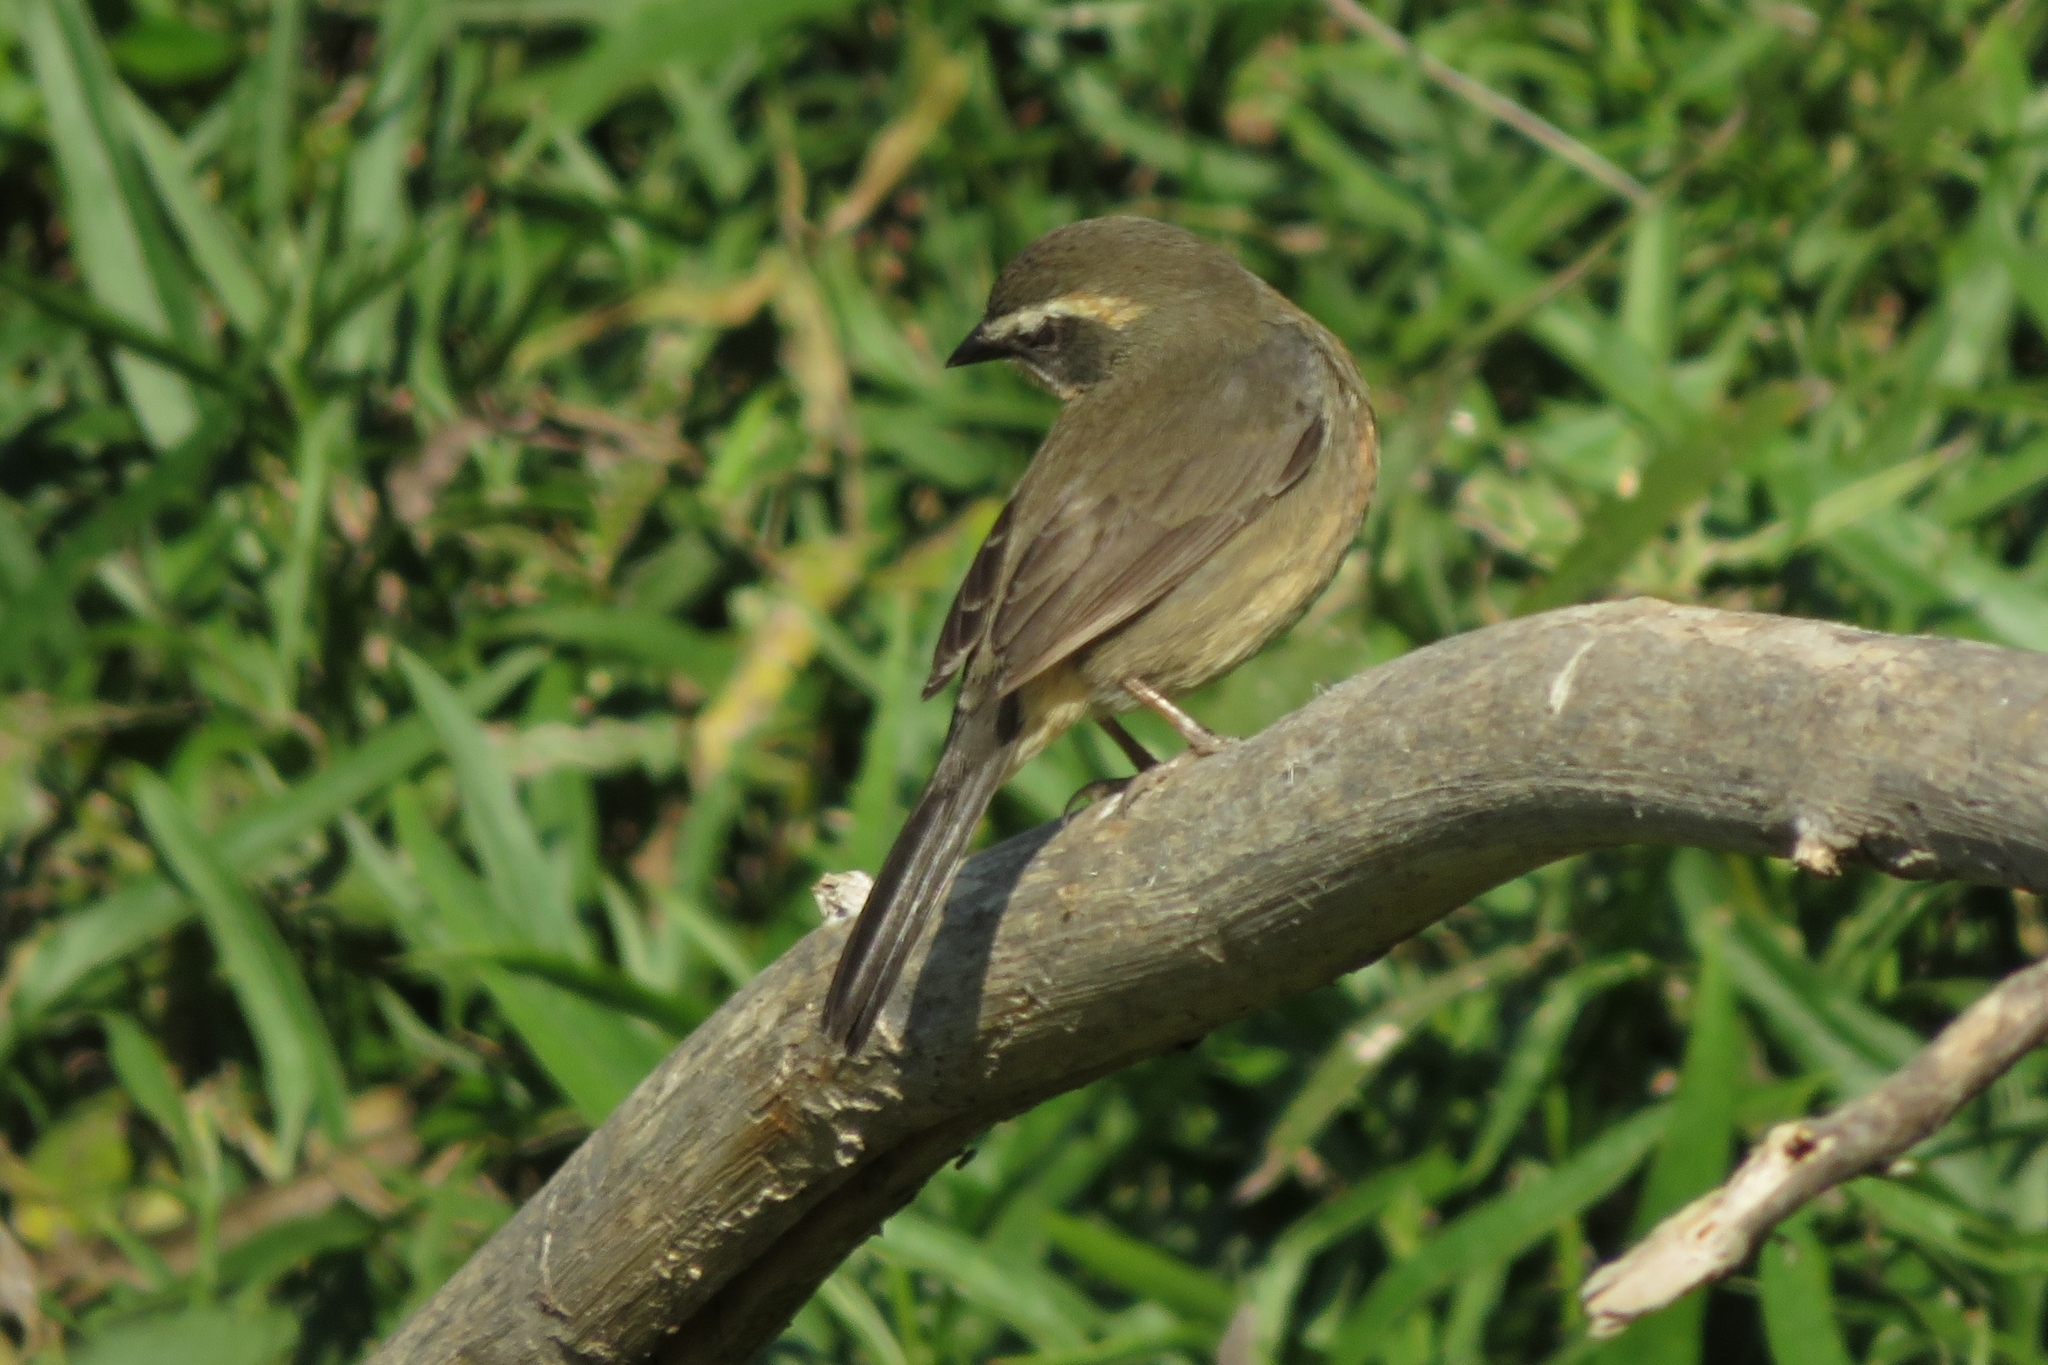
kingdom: Animalia
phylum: Chordata
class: Aves
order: Passeriformes
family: Thraupidae
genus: Poospiza
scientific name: Poospiza nigrorufa
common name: Black-and-rufous warbling finch
